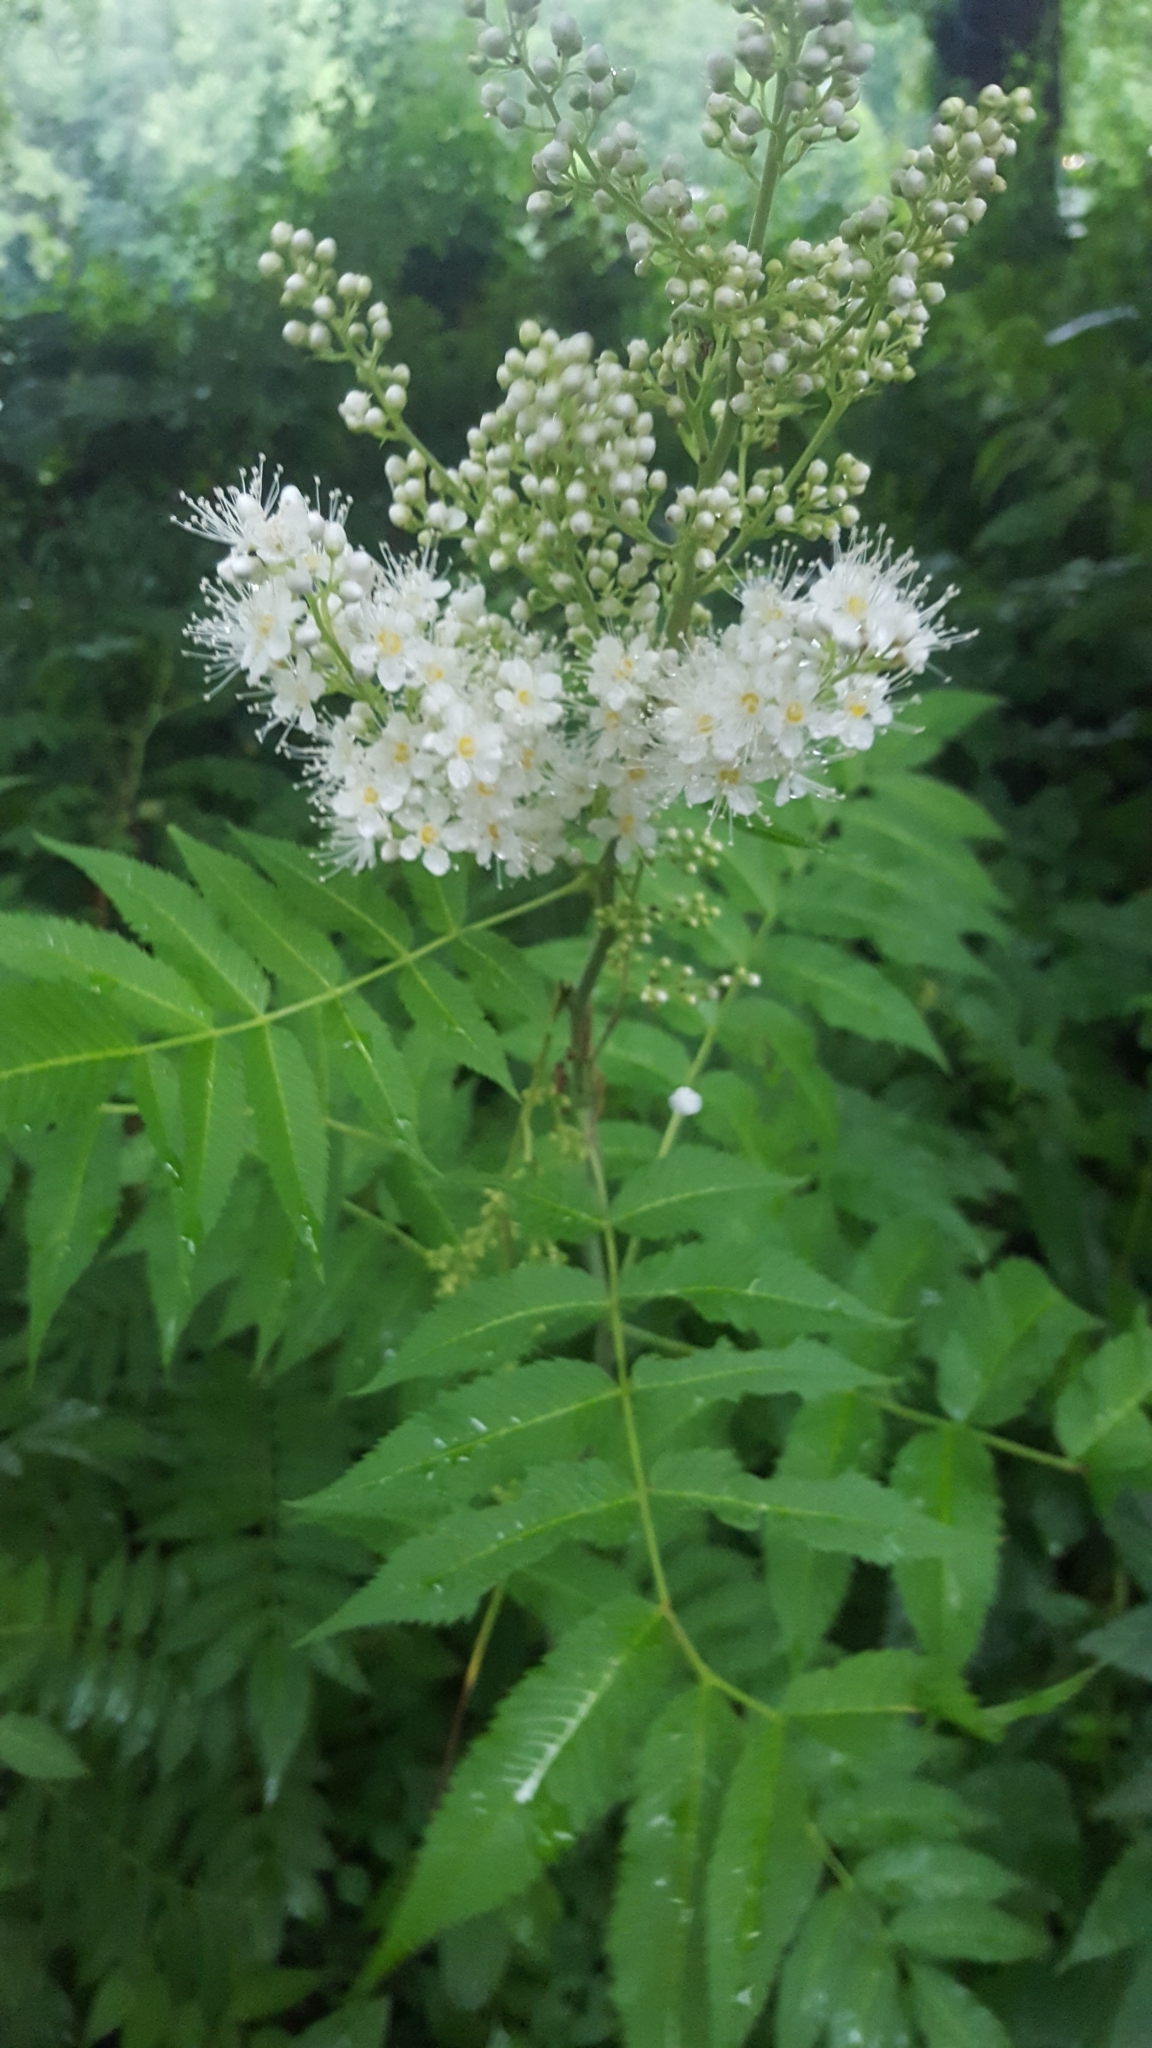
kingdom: Plantae
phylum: Tracheophyta
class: Magnoliopsida
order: Rosales
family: Rosaceae
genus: Sorbaria
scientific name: Sorbaria sorbifolia
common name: False spiraea
